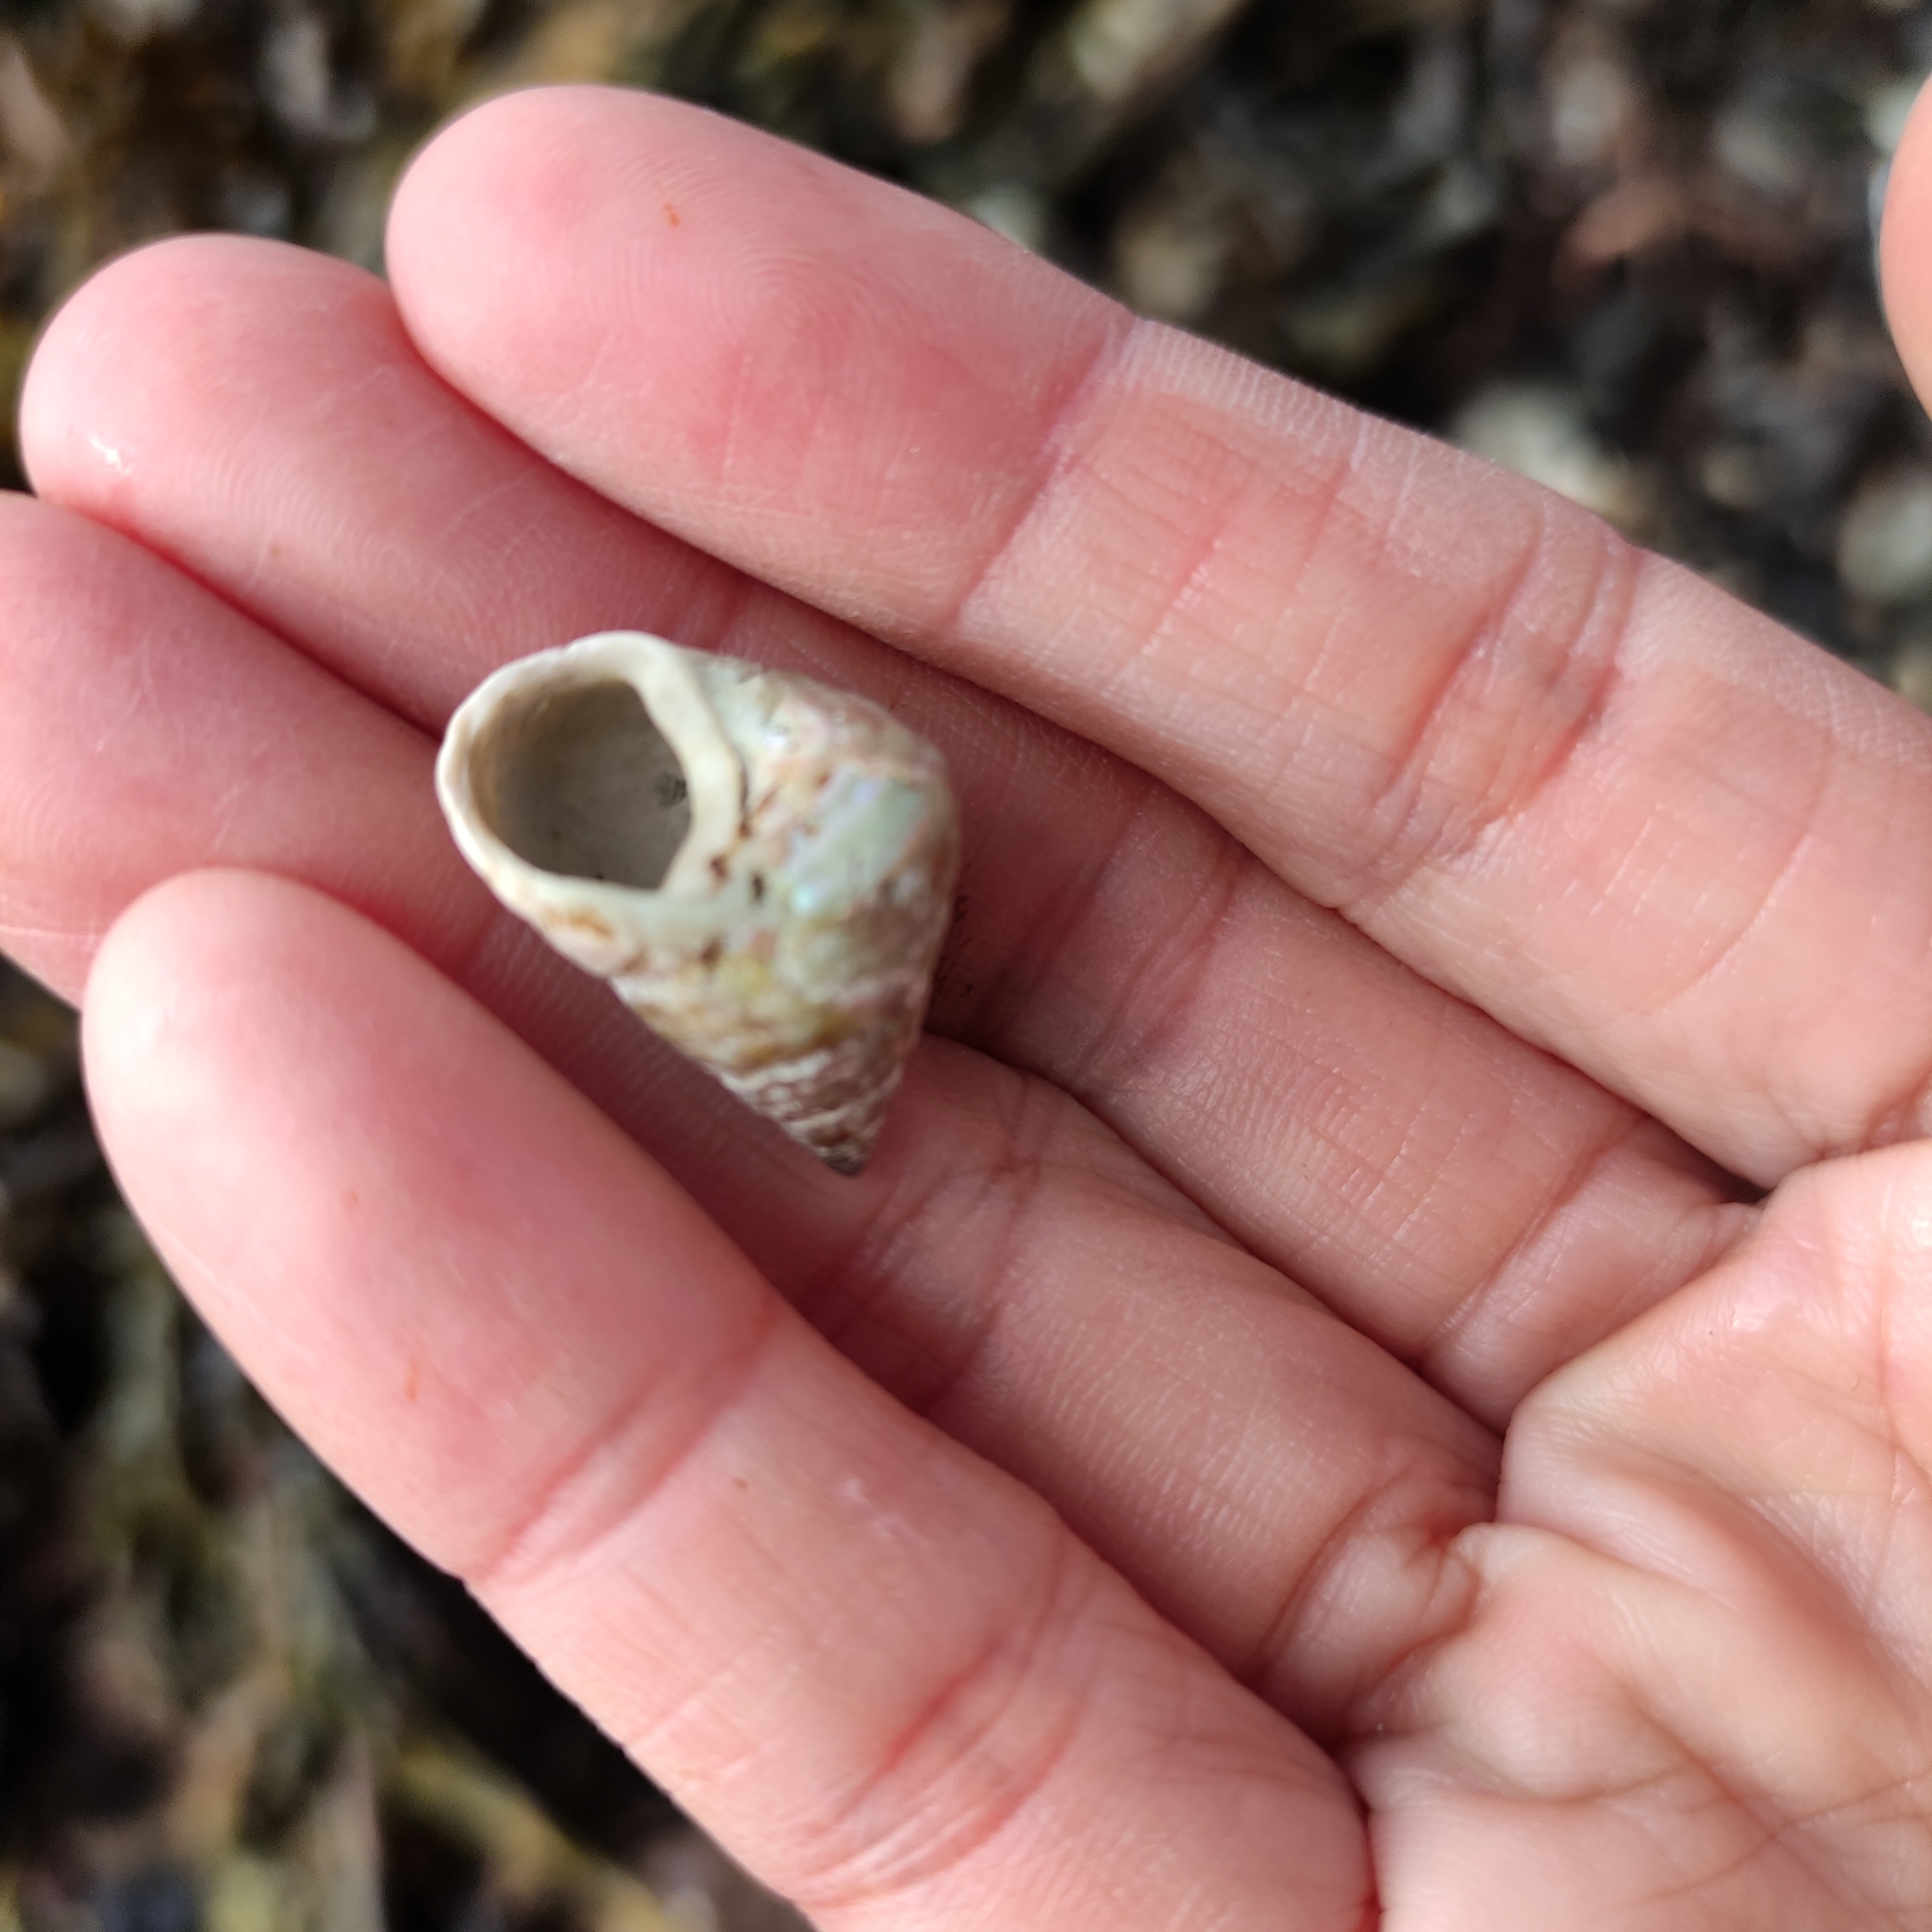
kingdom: Animalia
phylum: Mollusca
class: Gastropoda
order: Trochida
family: Trochidae
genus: Micrelenchus
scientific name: Micrelenchus purpureus
